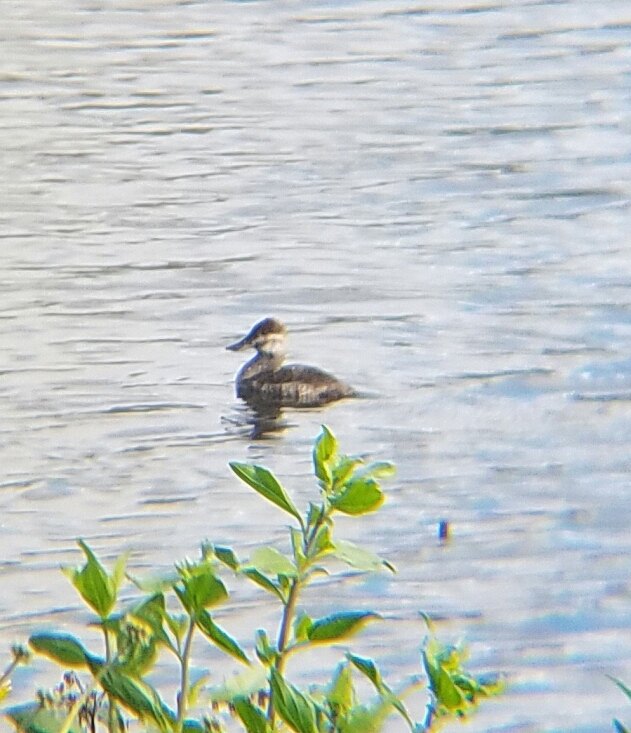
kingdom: Animalia
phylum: Chordata
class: Aves
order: Anseriformes
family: Anatidae
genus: Oxyura
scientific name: Oxyura jamaicensis
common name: Ruddy duck
